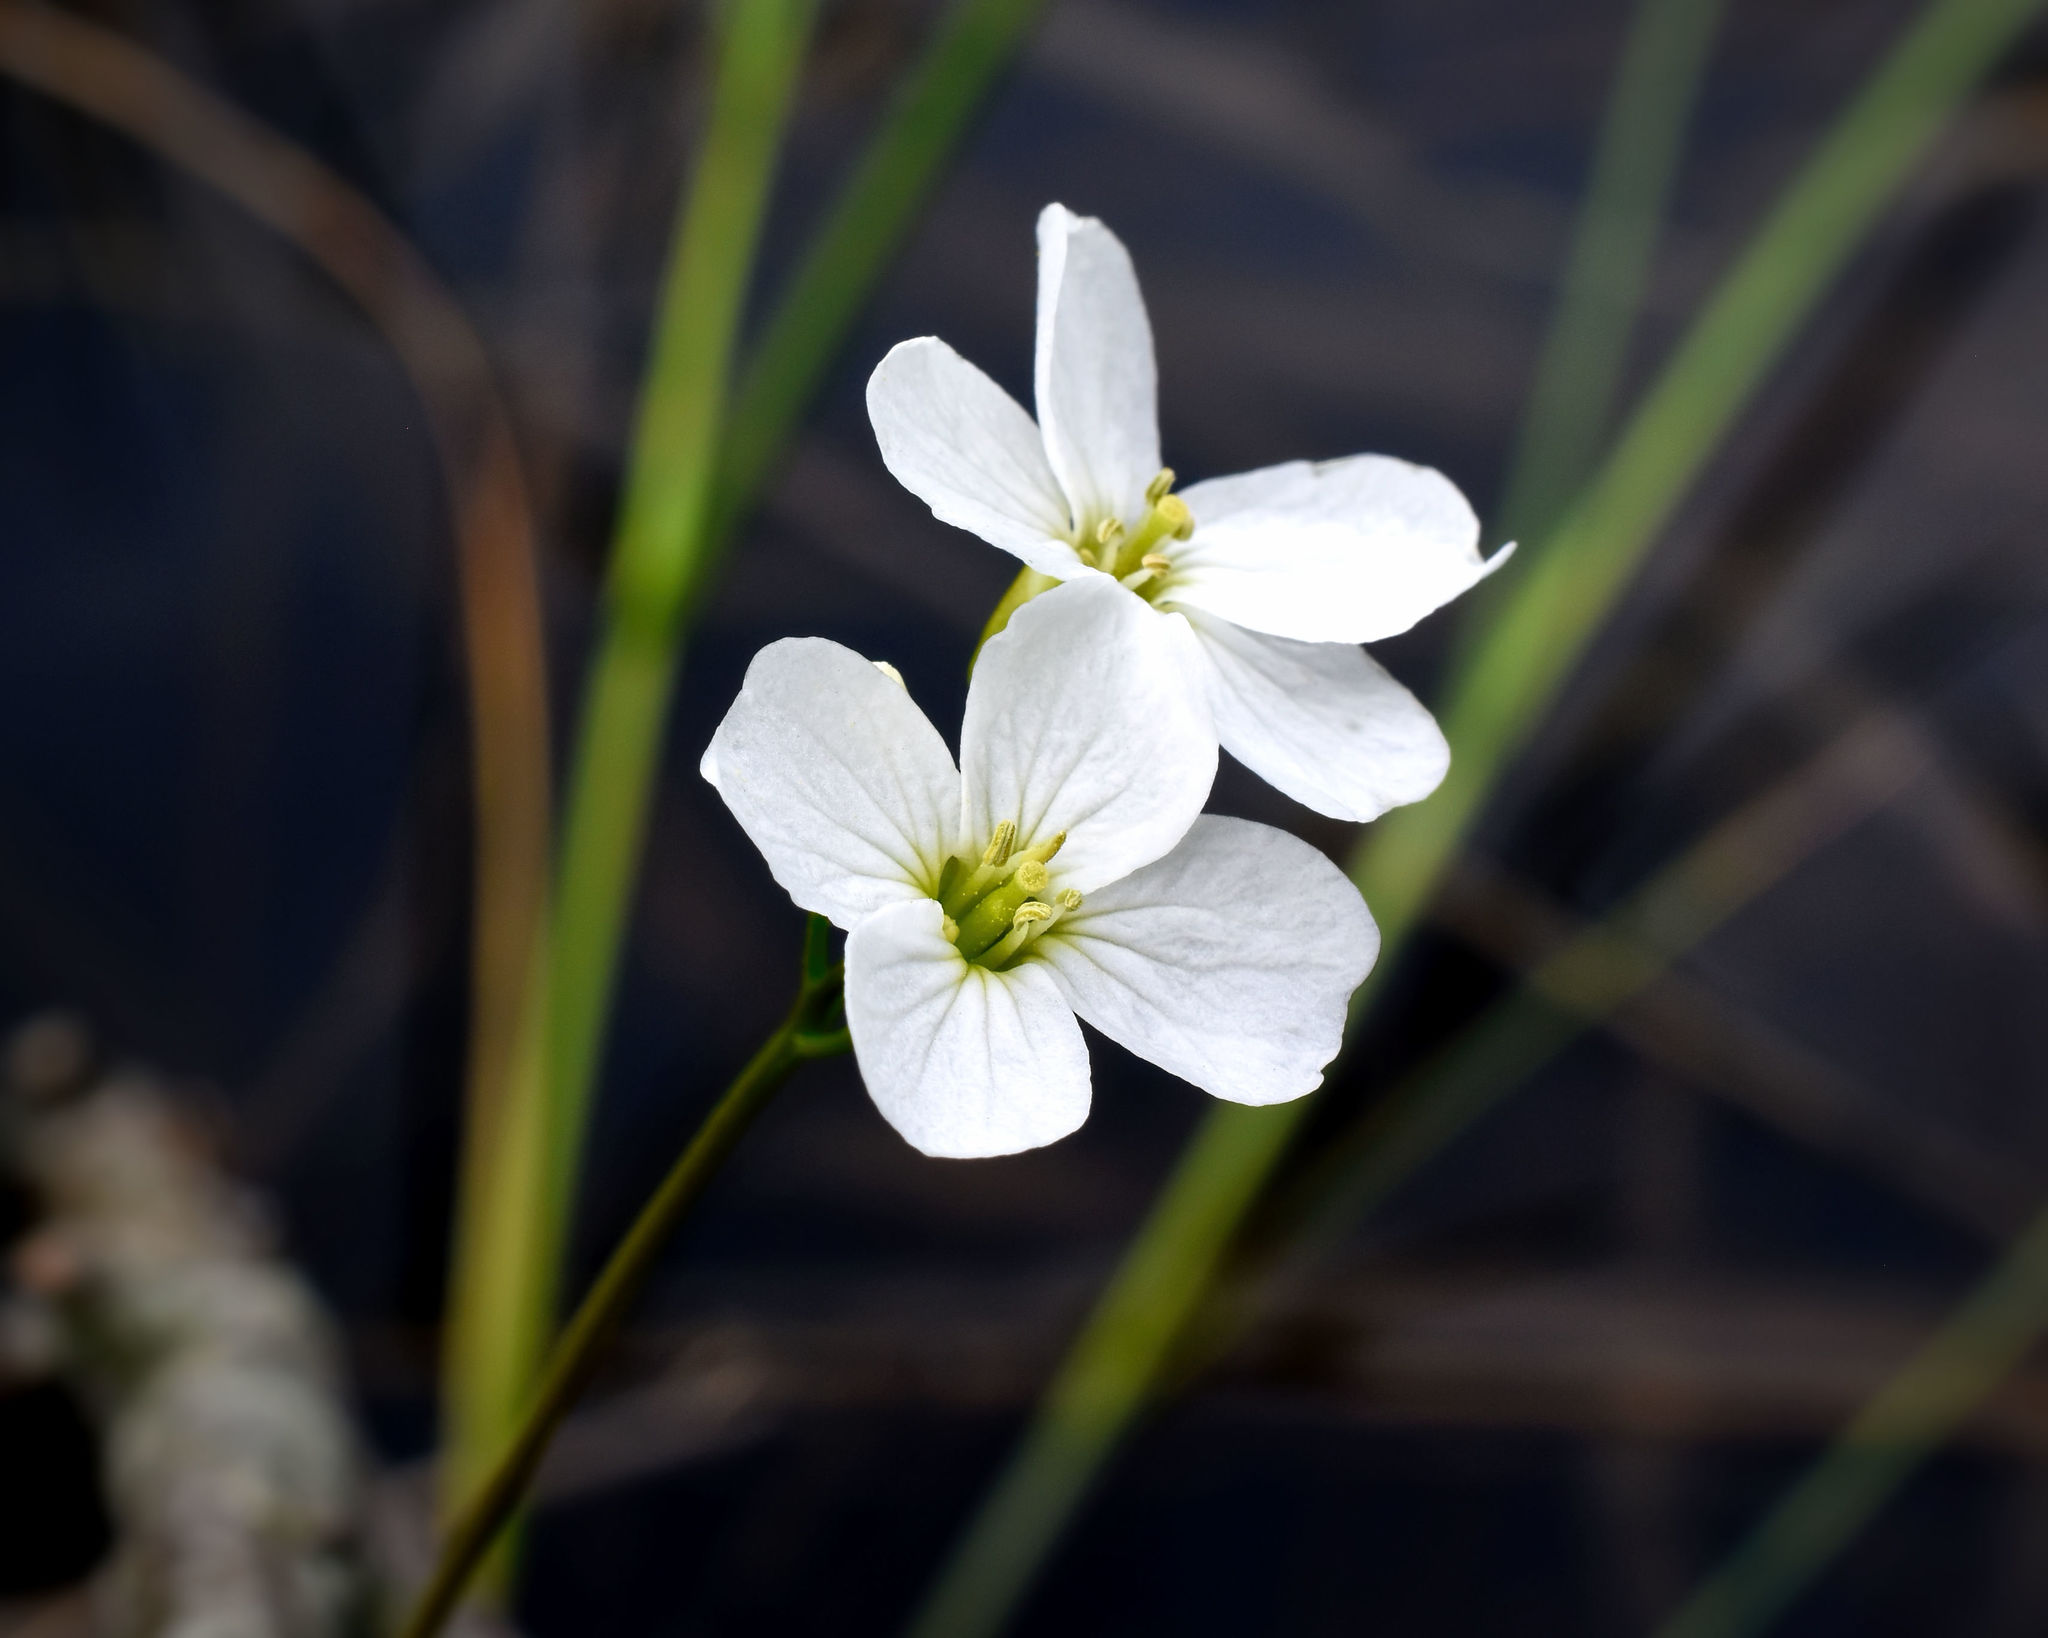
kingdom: Plantae
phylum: Tracheophyta
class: Magnoliopsida
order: Brassicales
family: Brassicaceae
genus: Cardamine
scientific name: Cardamine pratensis
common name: Cuckoo flower
